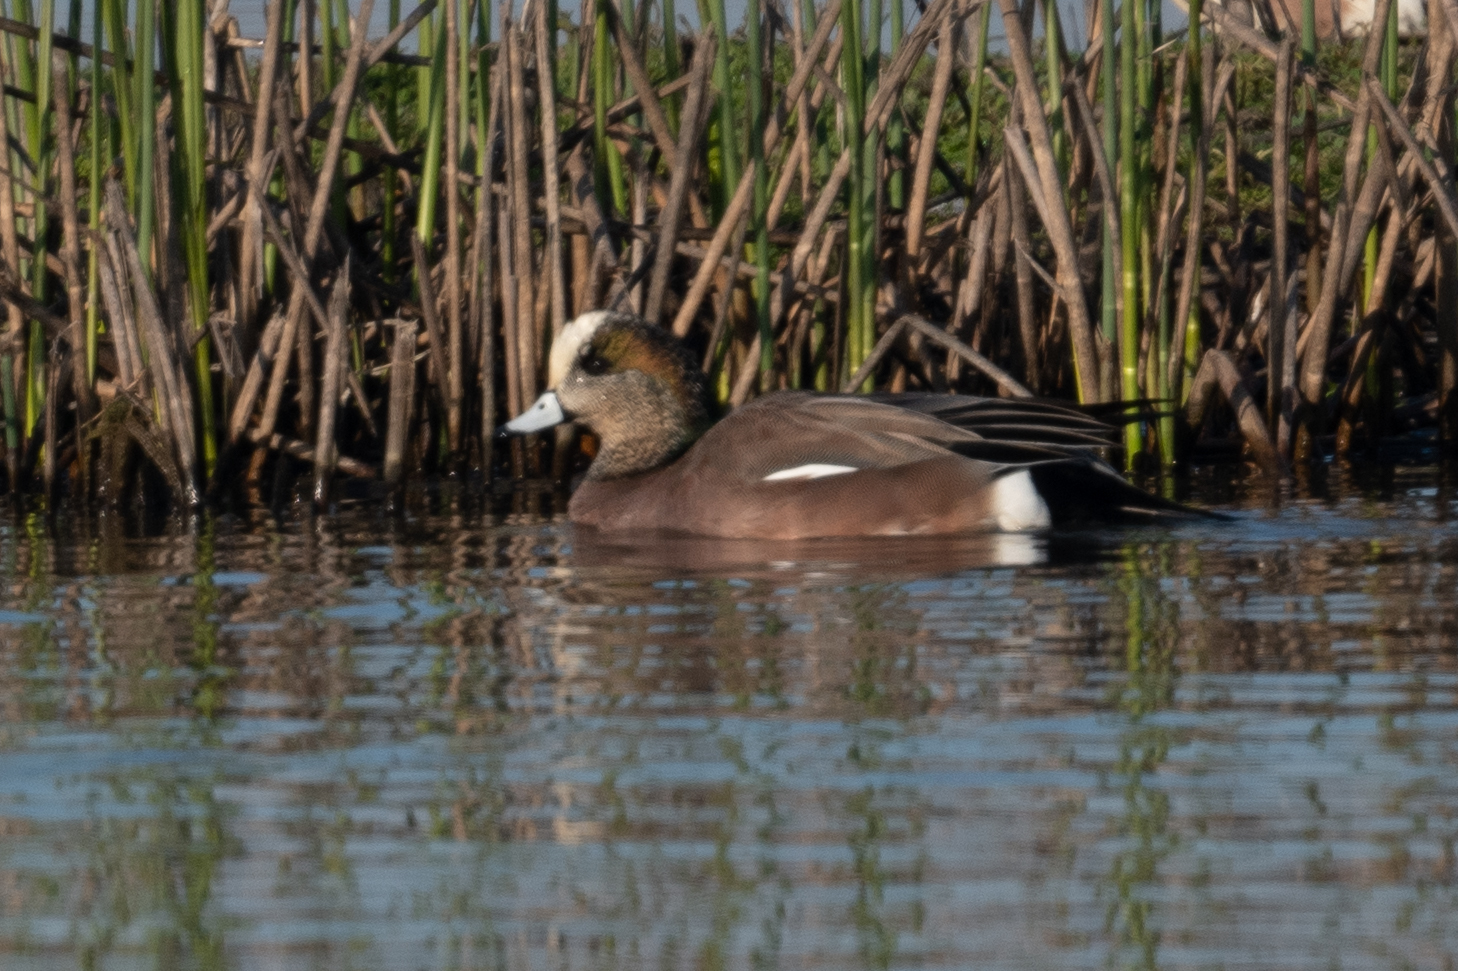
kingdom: Animalia
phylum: Chordata
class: Aves
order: Anseriformes
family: Anatidae
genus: Mareca
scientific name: Mareca americana
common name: American wigeon
